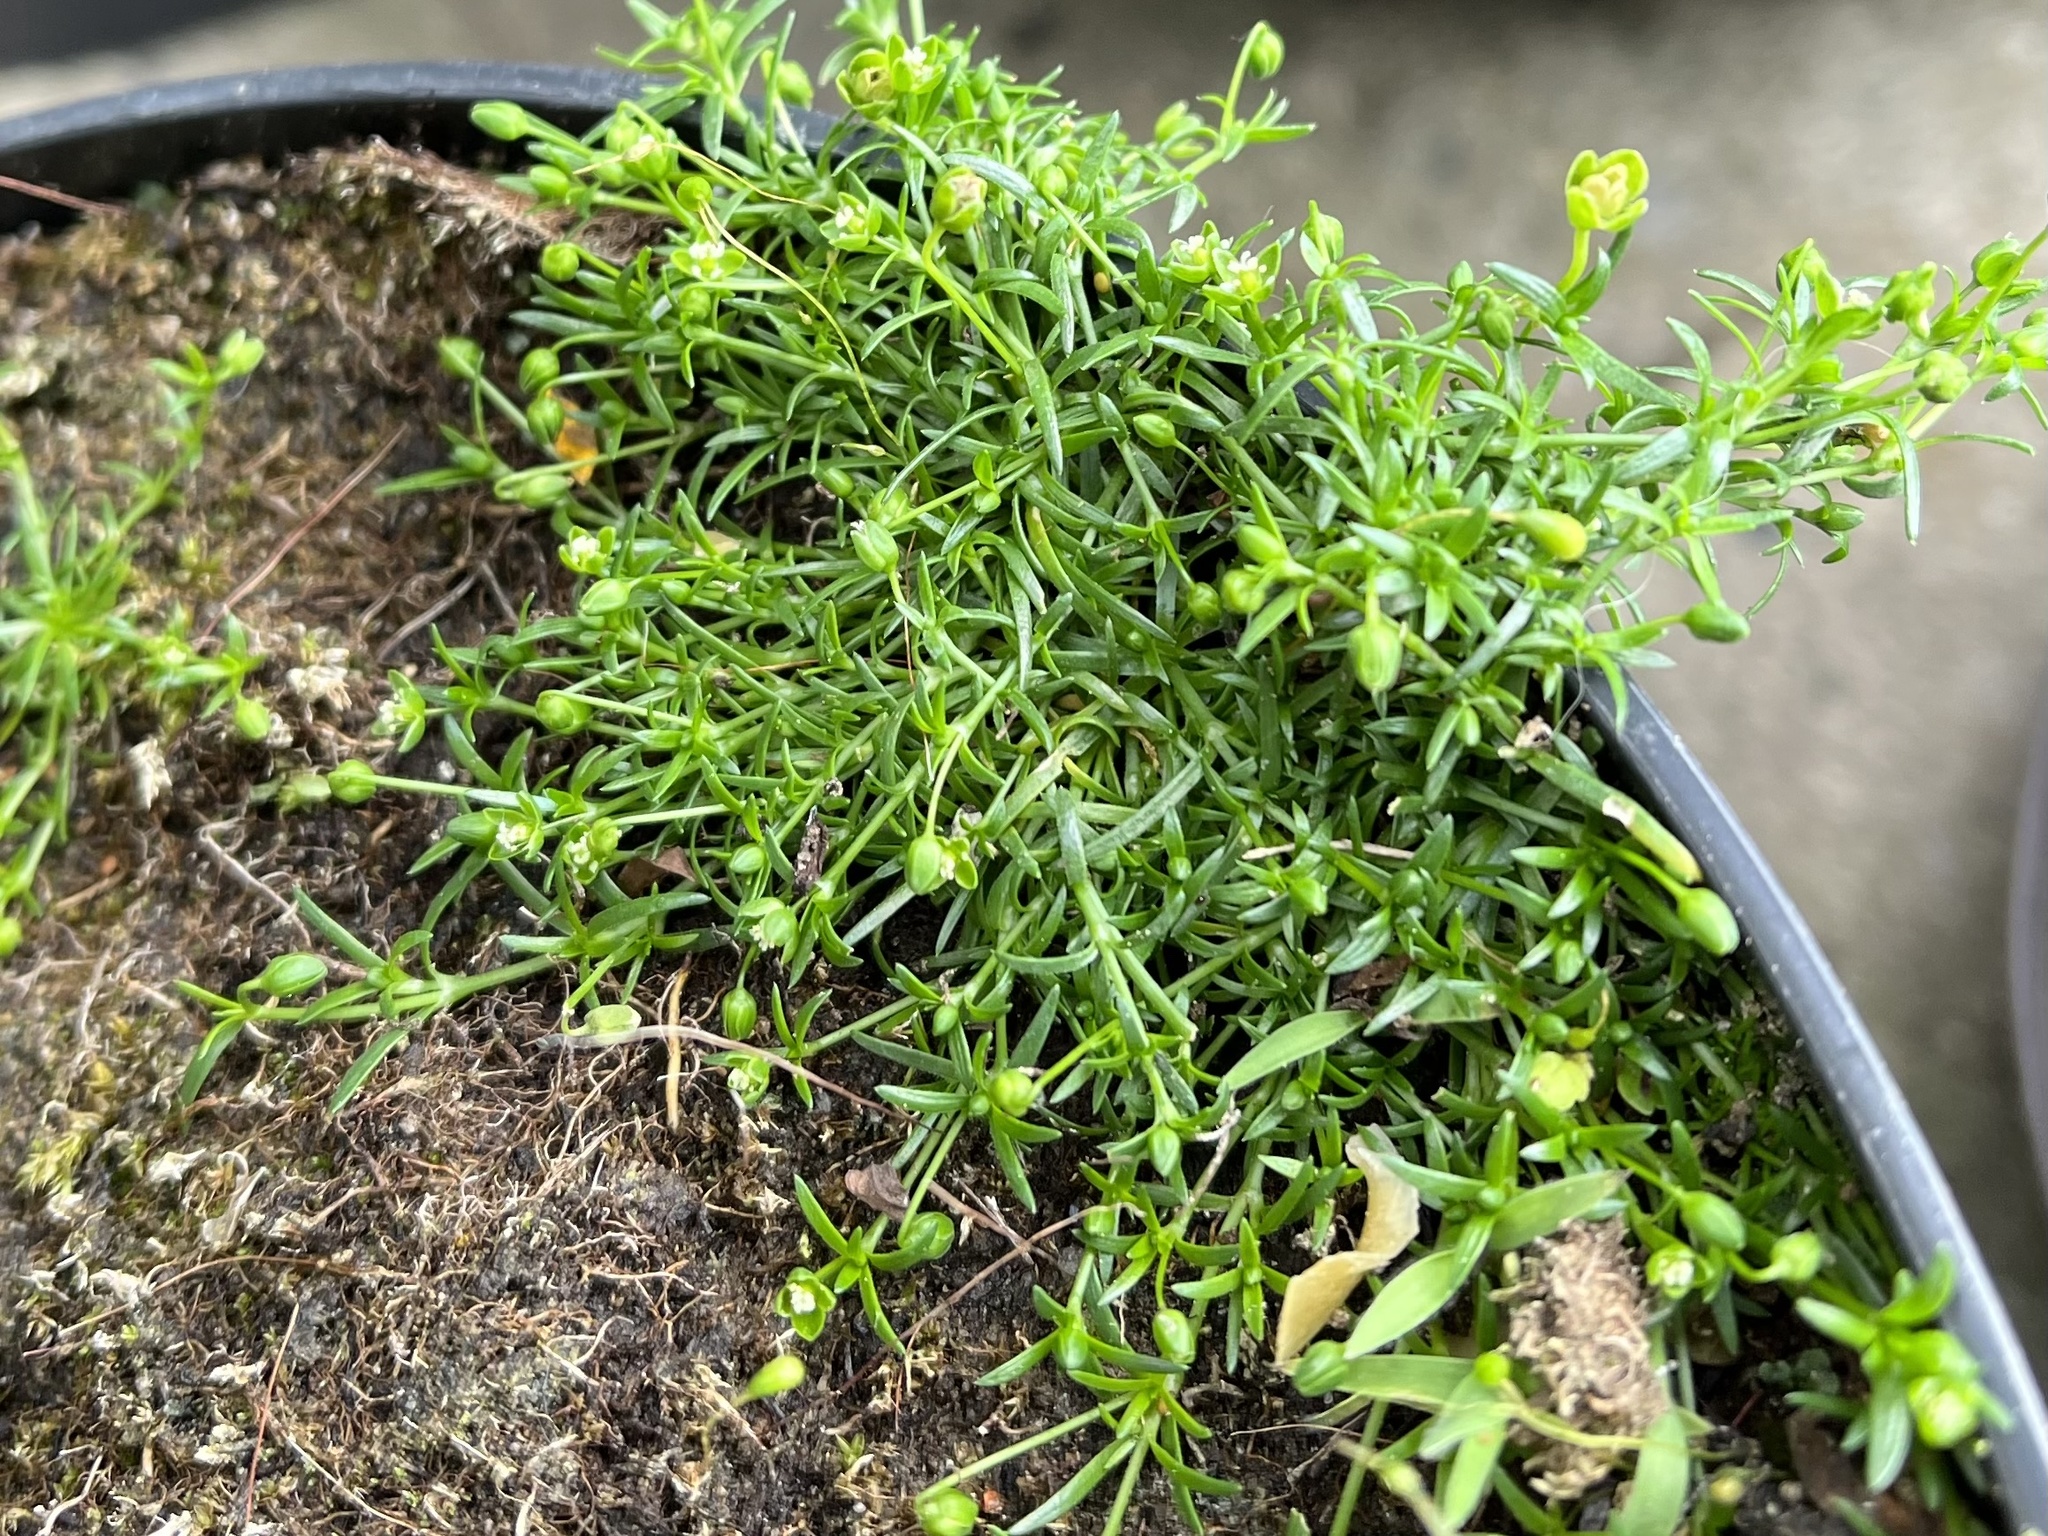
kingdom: Plantae
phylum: Tracheophyta
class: Magnoliopsida
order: Caryophyllales
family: Caryophyllaceae
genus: Sagina
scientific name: Sagina procumbens
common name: Procumbent pearlwort
